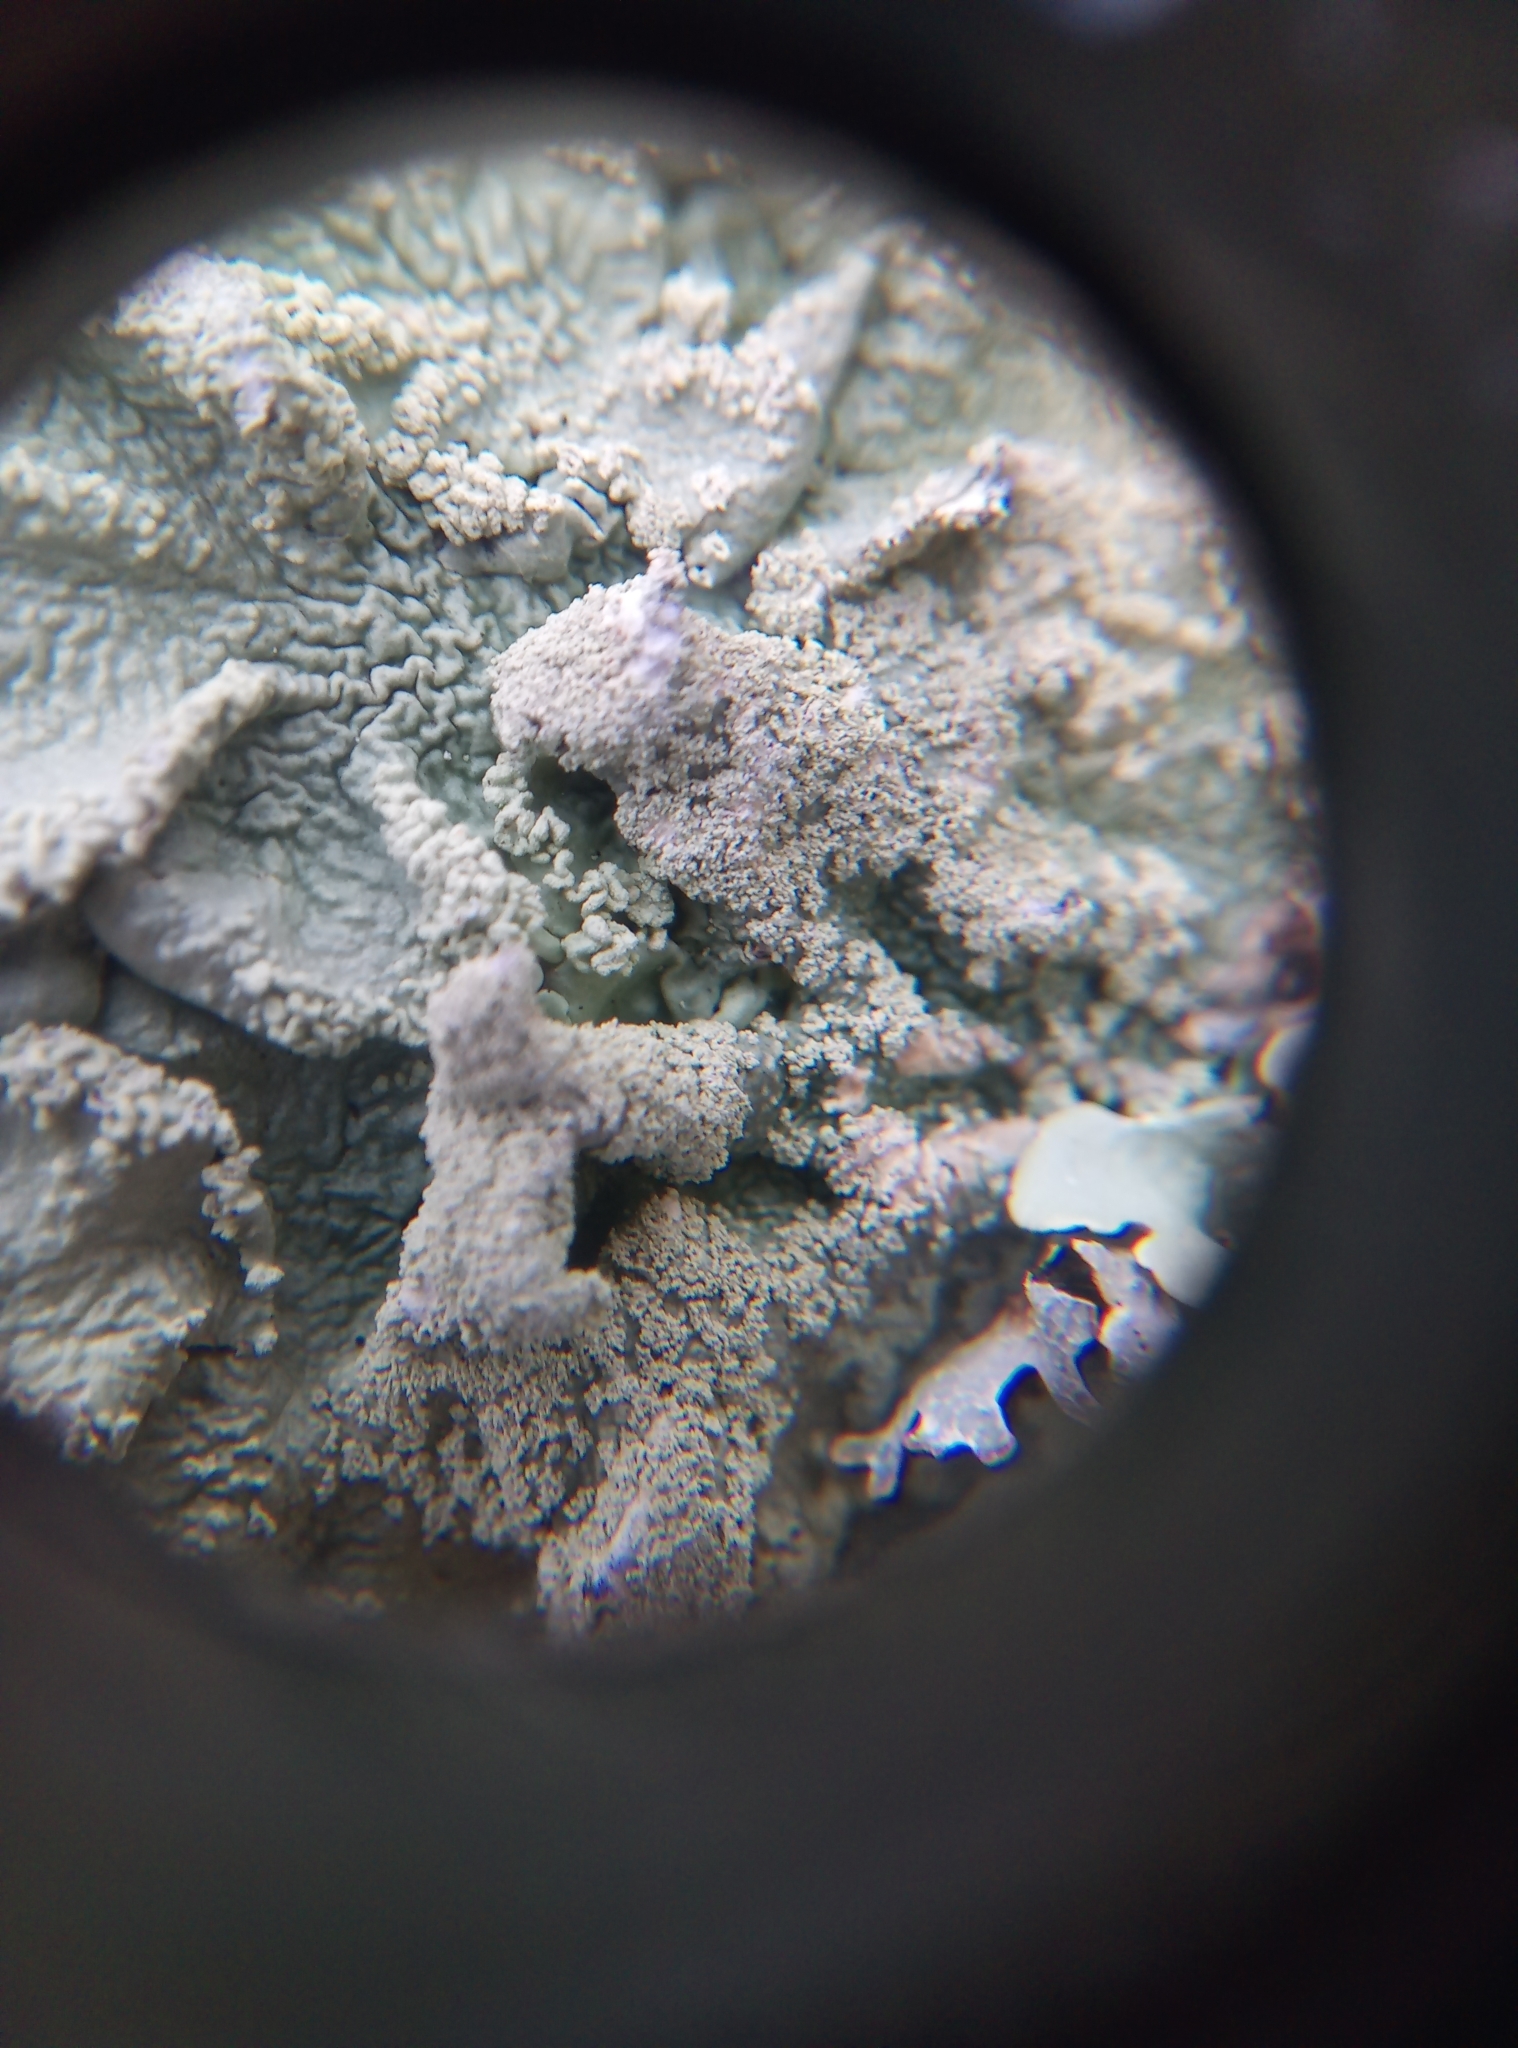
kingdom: Fungi
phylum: Ascomycota
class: Lecanoromycetes
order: Lecanorales
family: Parmeliaceae
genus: Flavoparmelia
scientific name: Flavoparmelia caperata
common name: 40-mile per hour lichen
